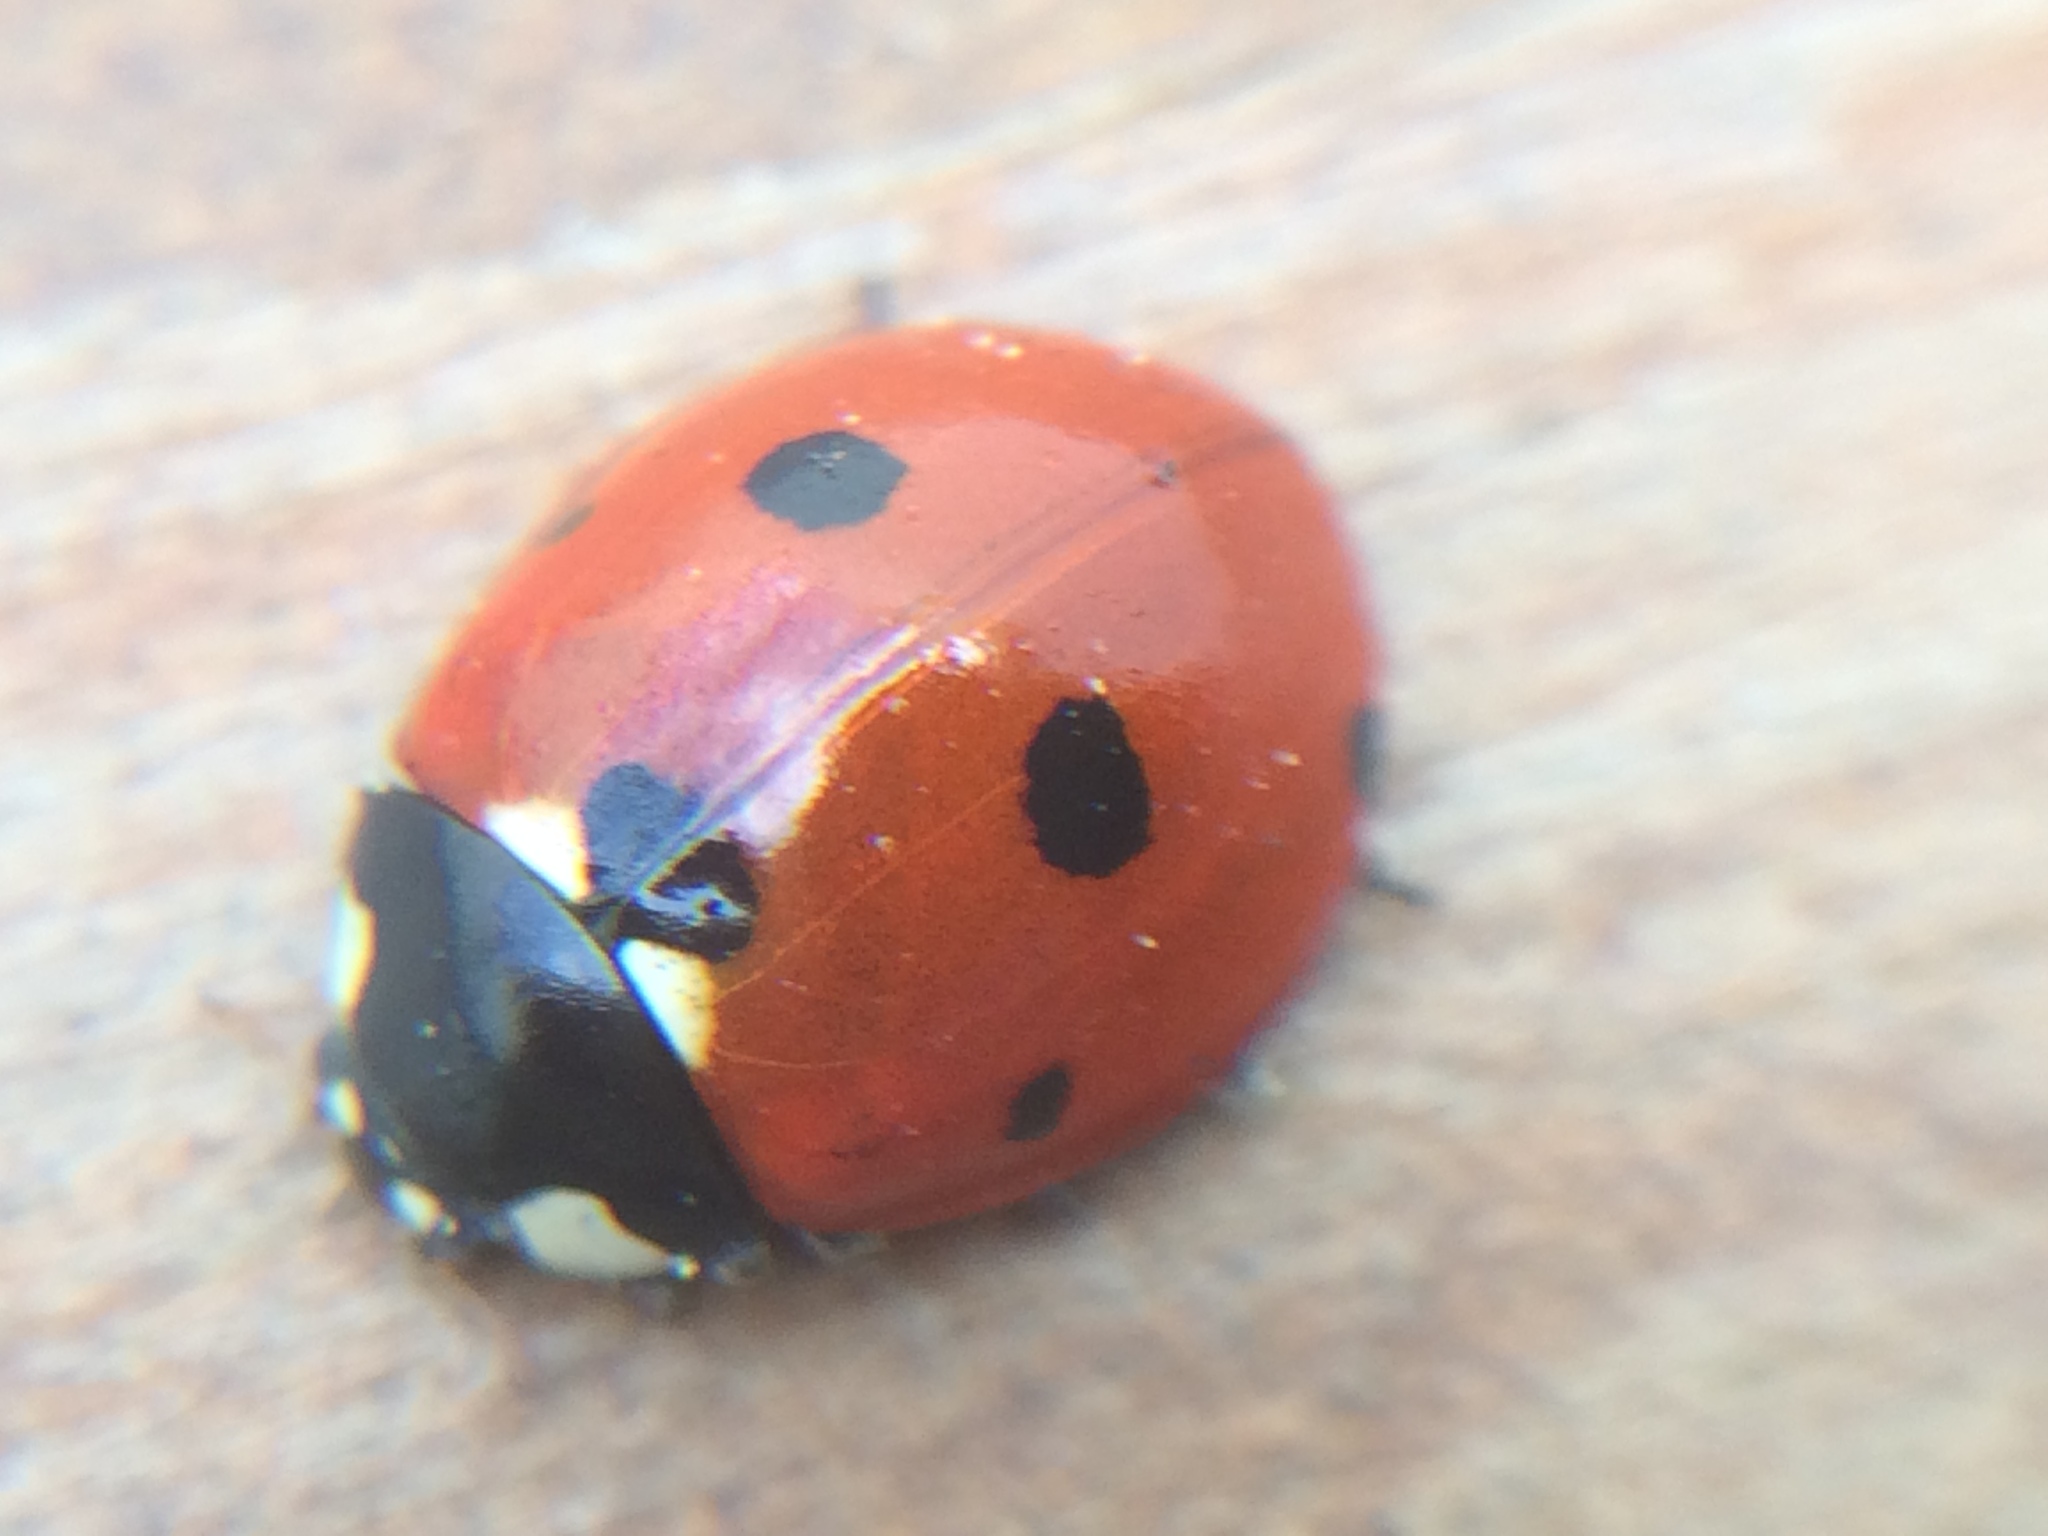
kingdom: Animalia
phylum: Arthropoda
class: Insecta
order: Coleoptera
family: Coccinellidae
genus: Coccinella
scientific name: Coccinella septempunctata
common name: Sevenspotted lady beetle
